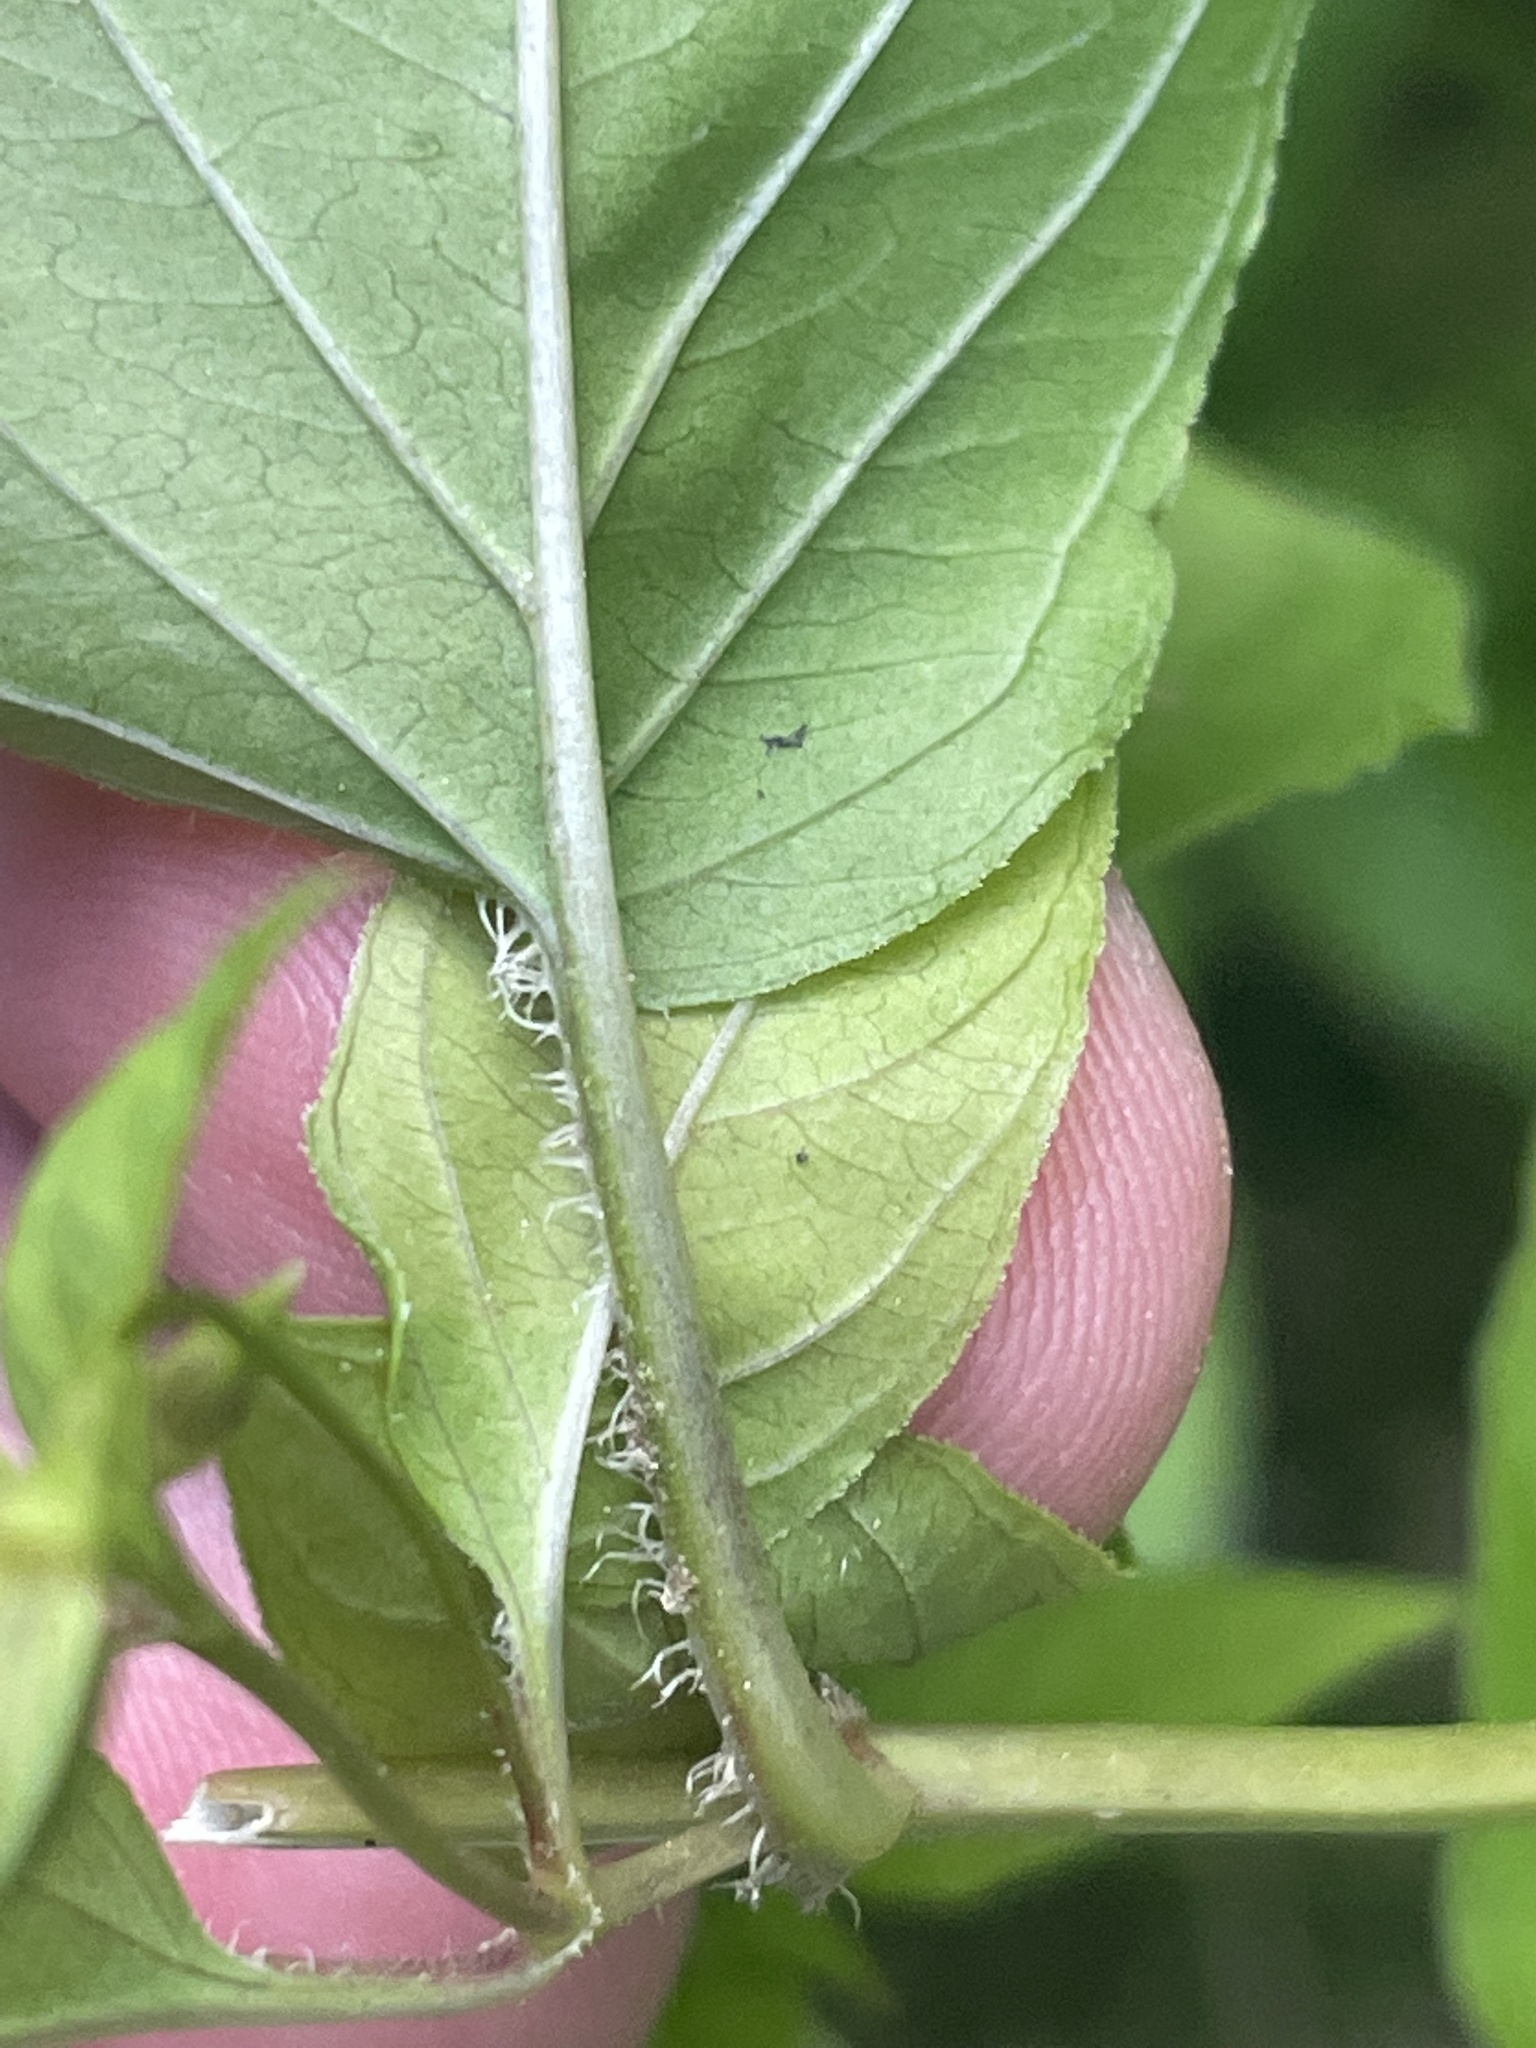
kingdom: Plantae
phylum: Tracheophyta
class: Magnoliopsida
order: Ericales
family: Primulaceae
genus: Lysimachia
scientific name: Lysimachia ciliata
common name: Fringed loosestrife
